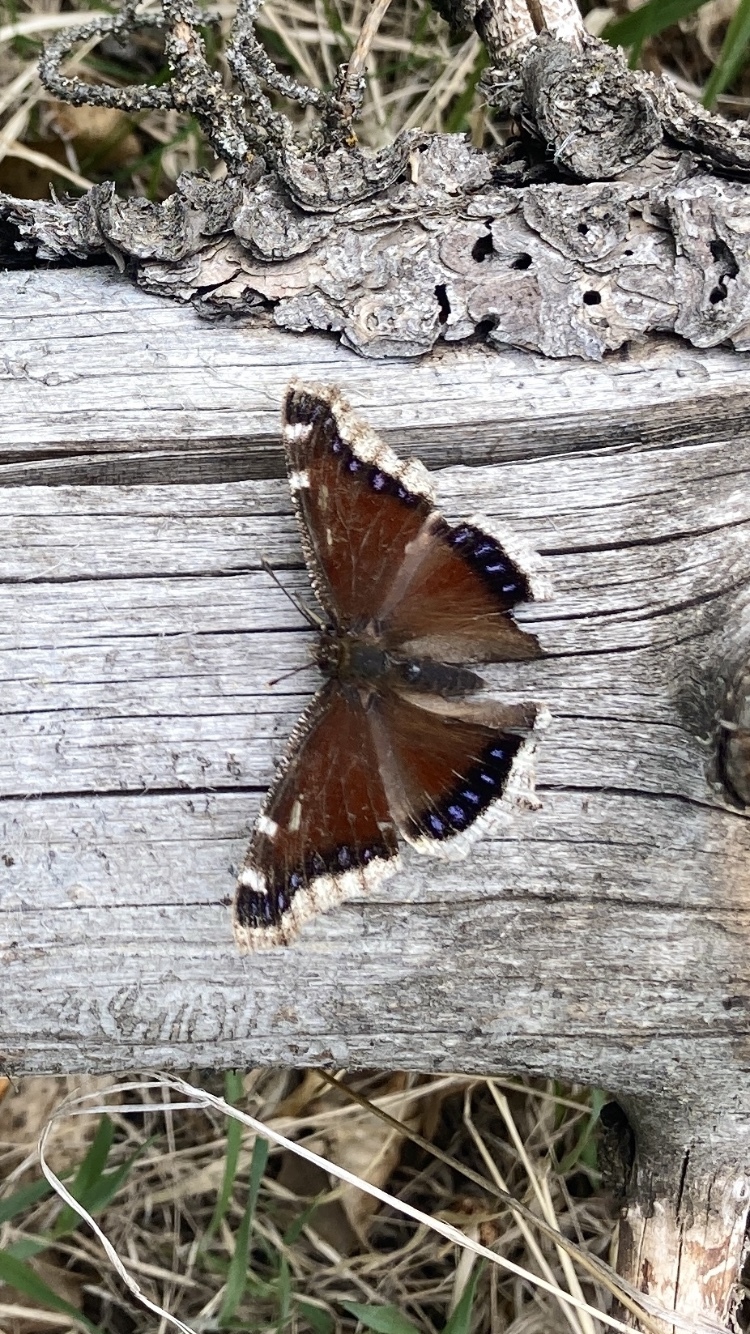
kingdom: Animalia
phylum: Arthropoda
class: Insecta
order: Lepidoptera
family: Nymphalidae
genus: Nymphalis
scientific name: Nymphalis antiopa
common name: Camberwell beauty
